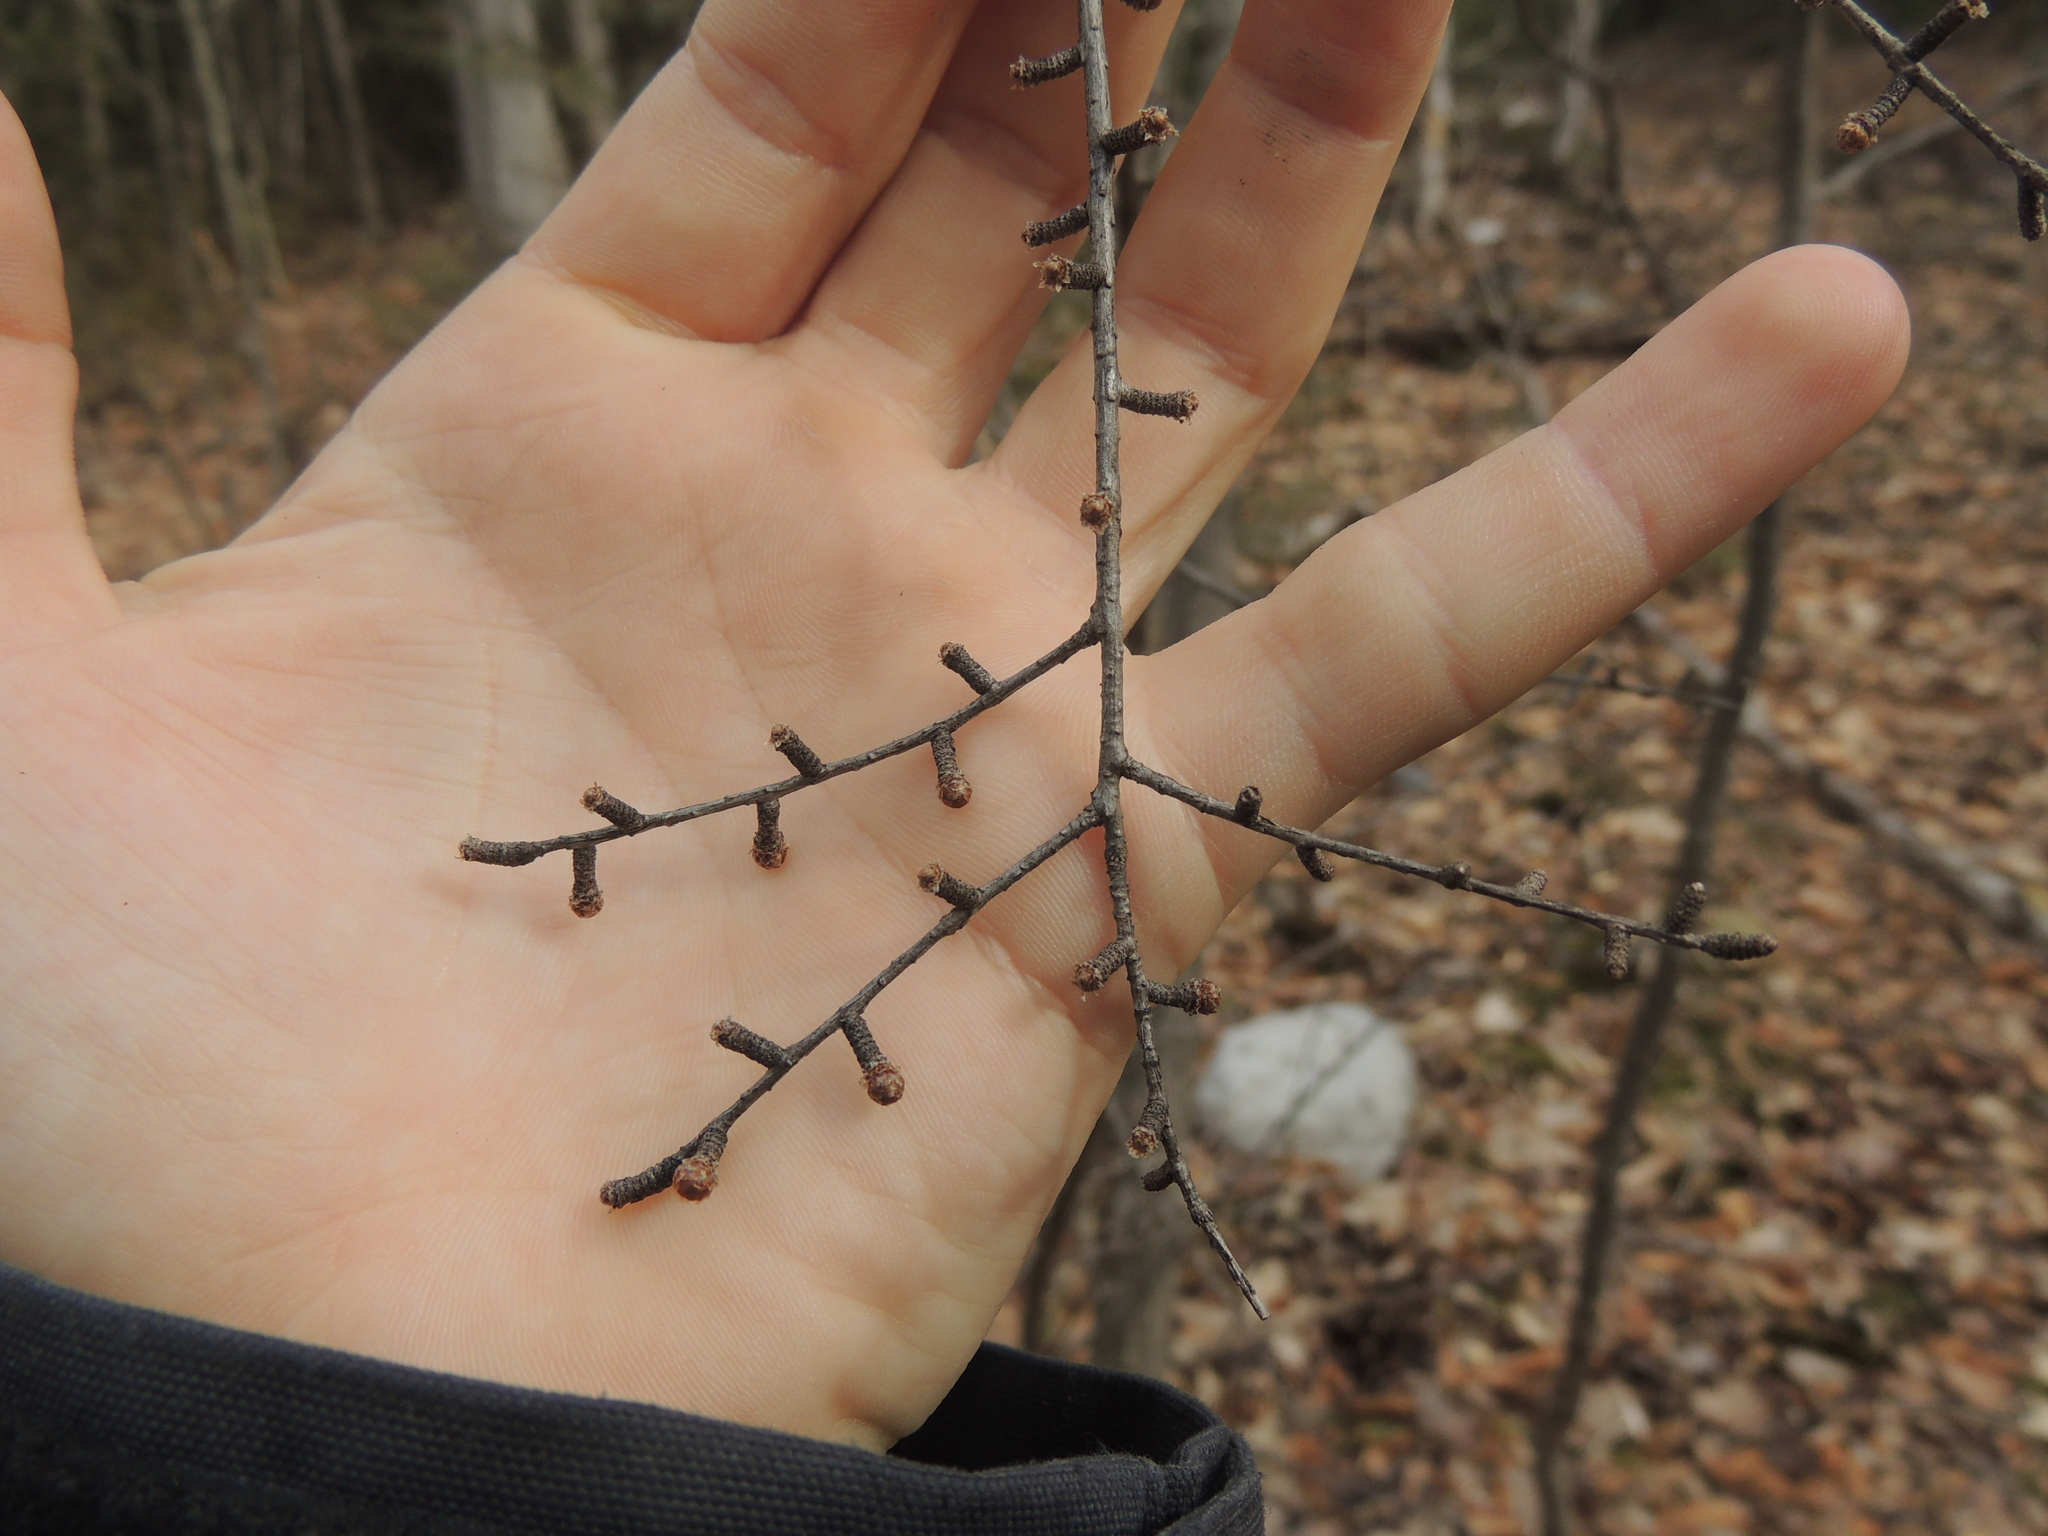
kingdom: Plantae
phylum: Tracheophyta
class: Pinopsida
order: Pinales
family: Pinaceae
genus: Larix
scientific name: Larix laricina
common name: American larch
